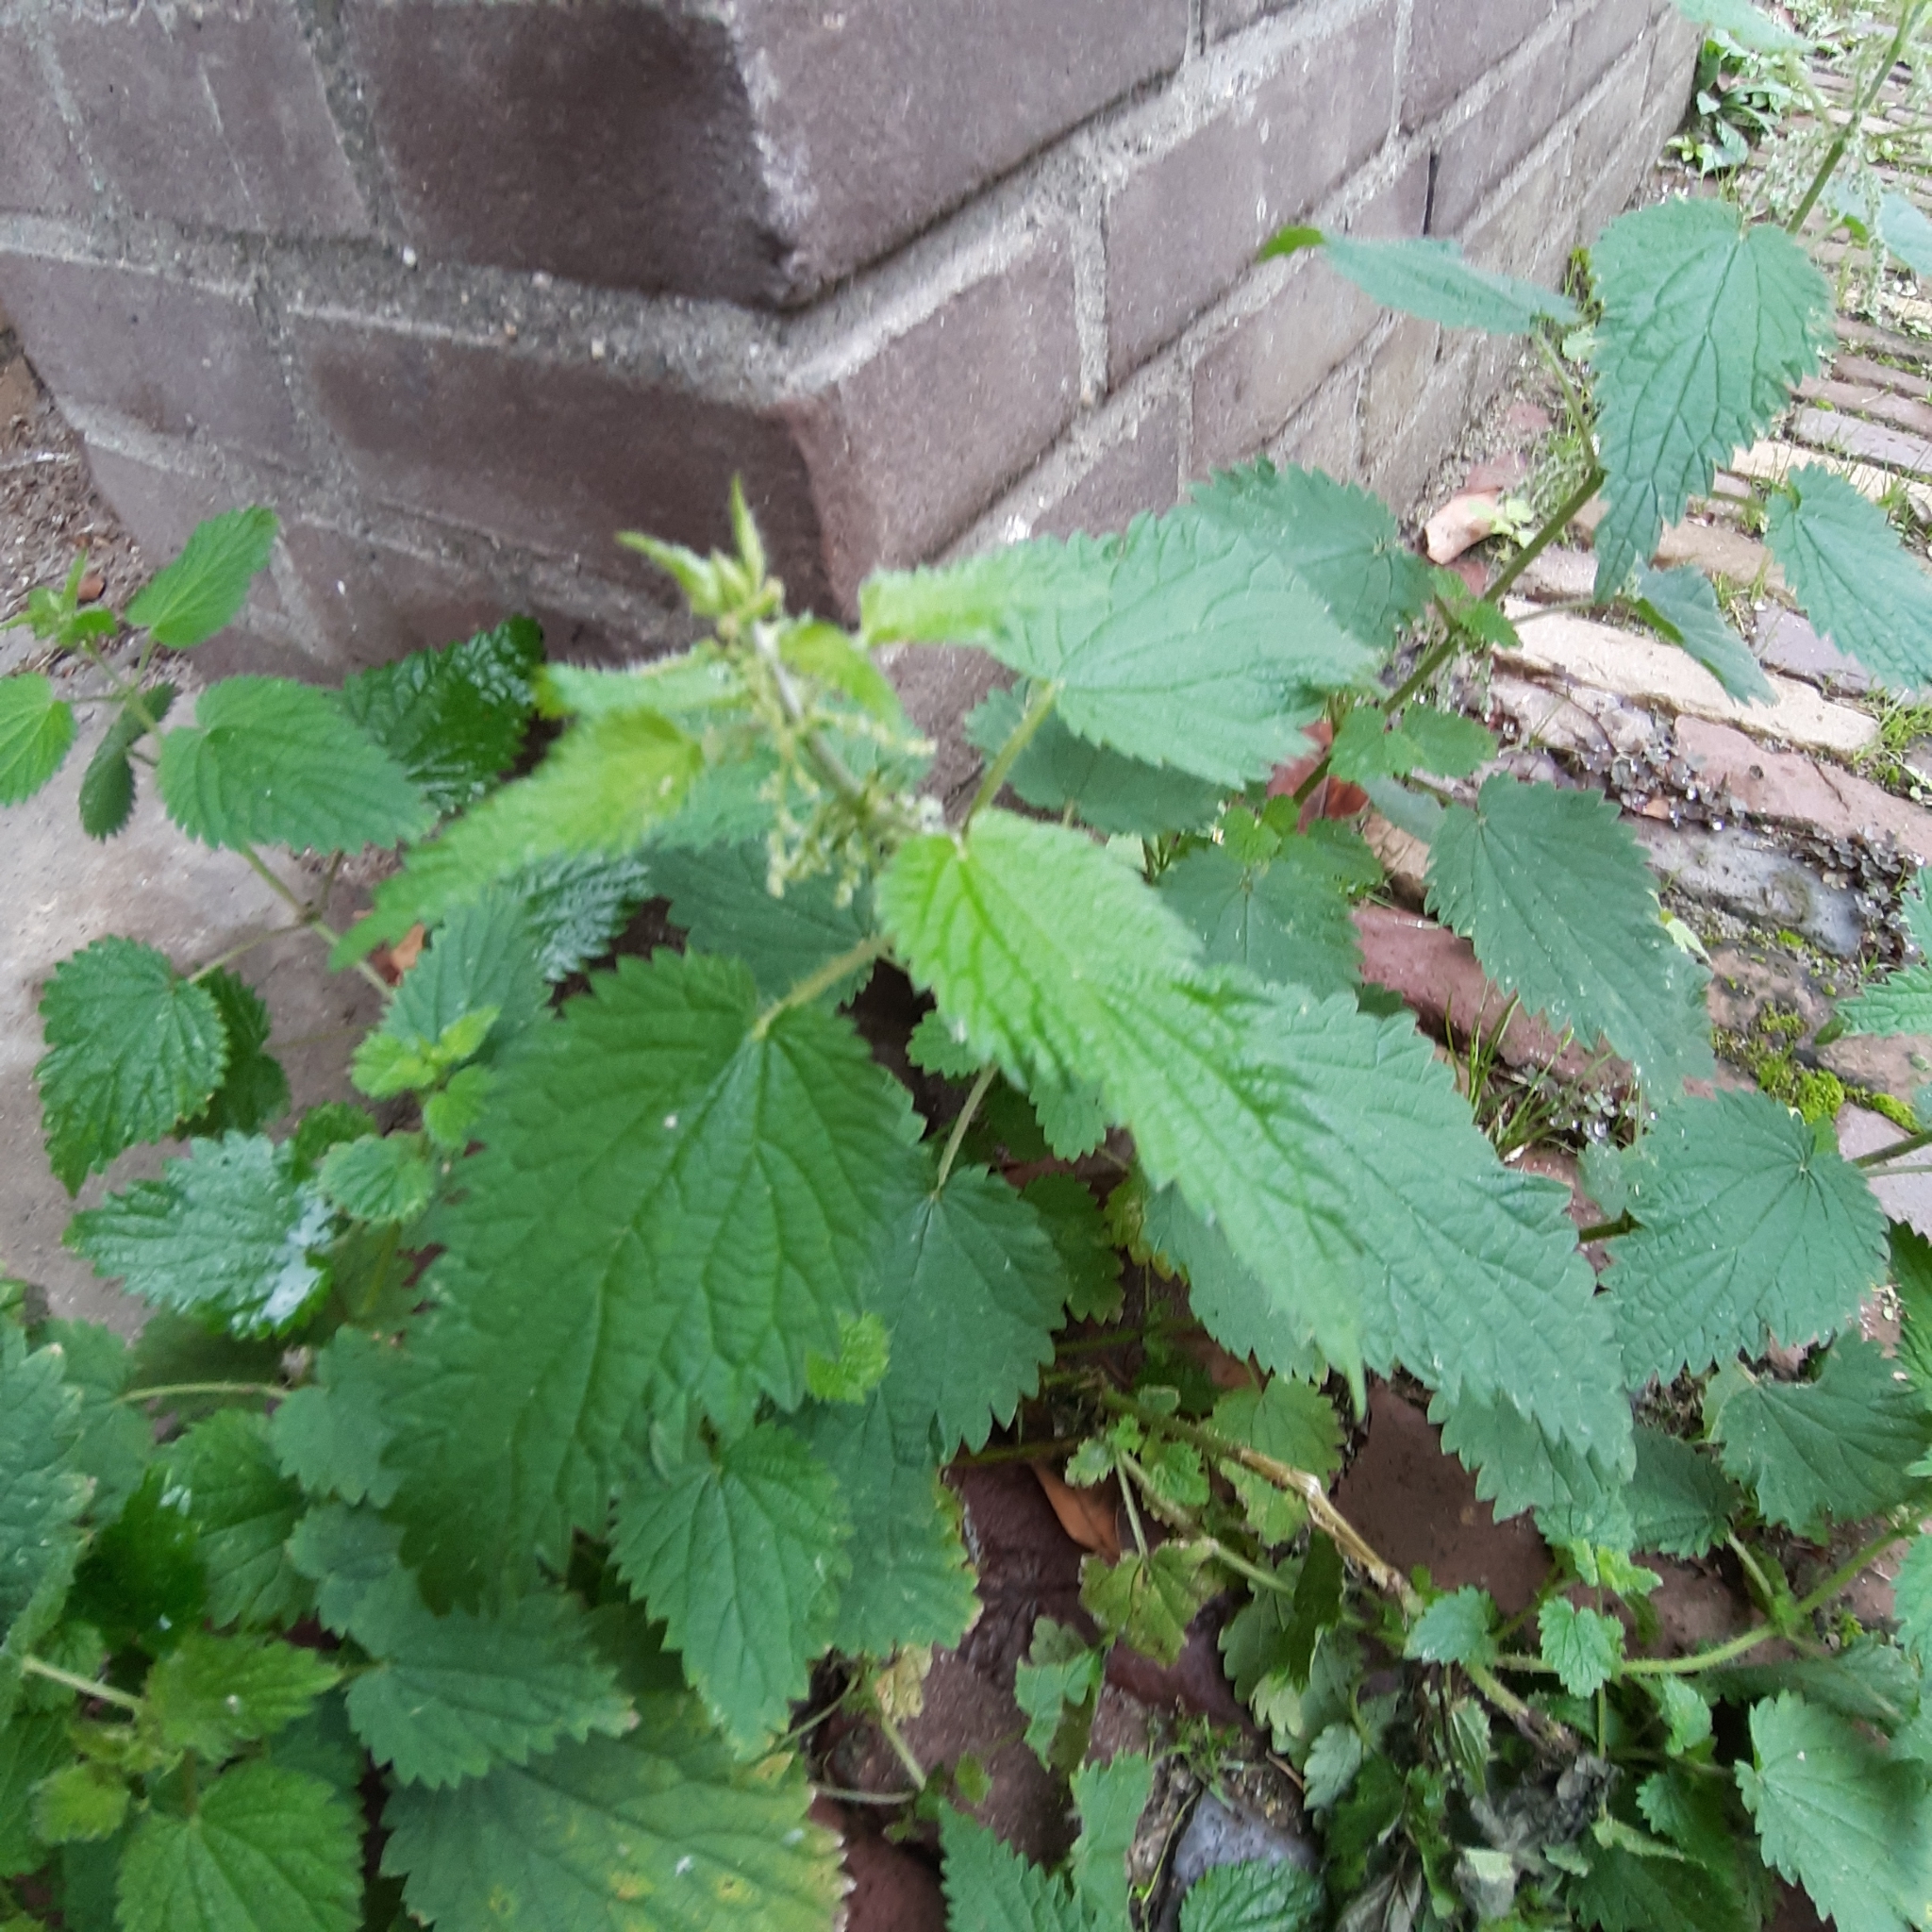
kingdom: Plantae
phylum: Tracheophyta
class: Magnoliopsida
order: Rosales
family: Urticaceae
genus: Urtica
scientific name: Urtica dioica
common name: Common nettle
